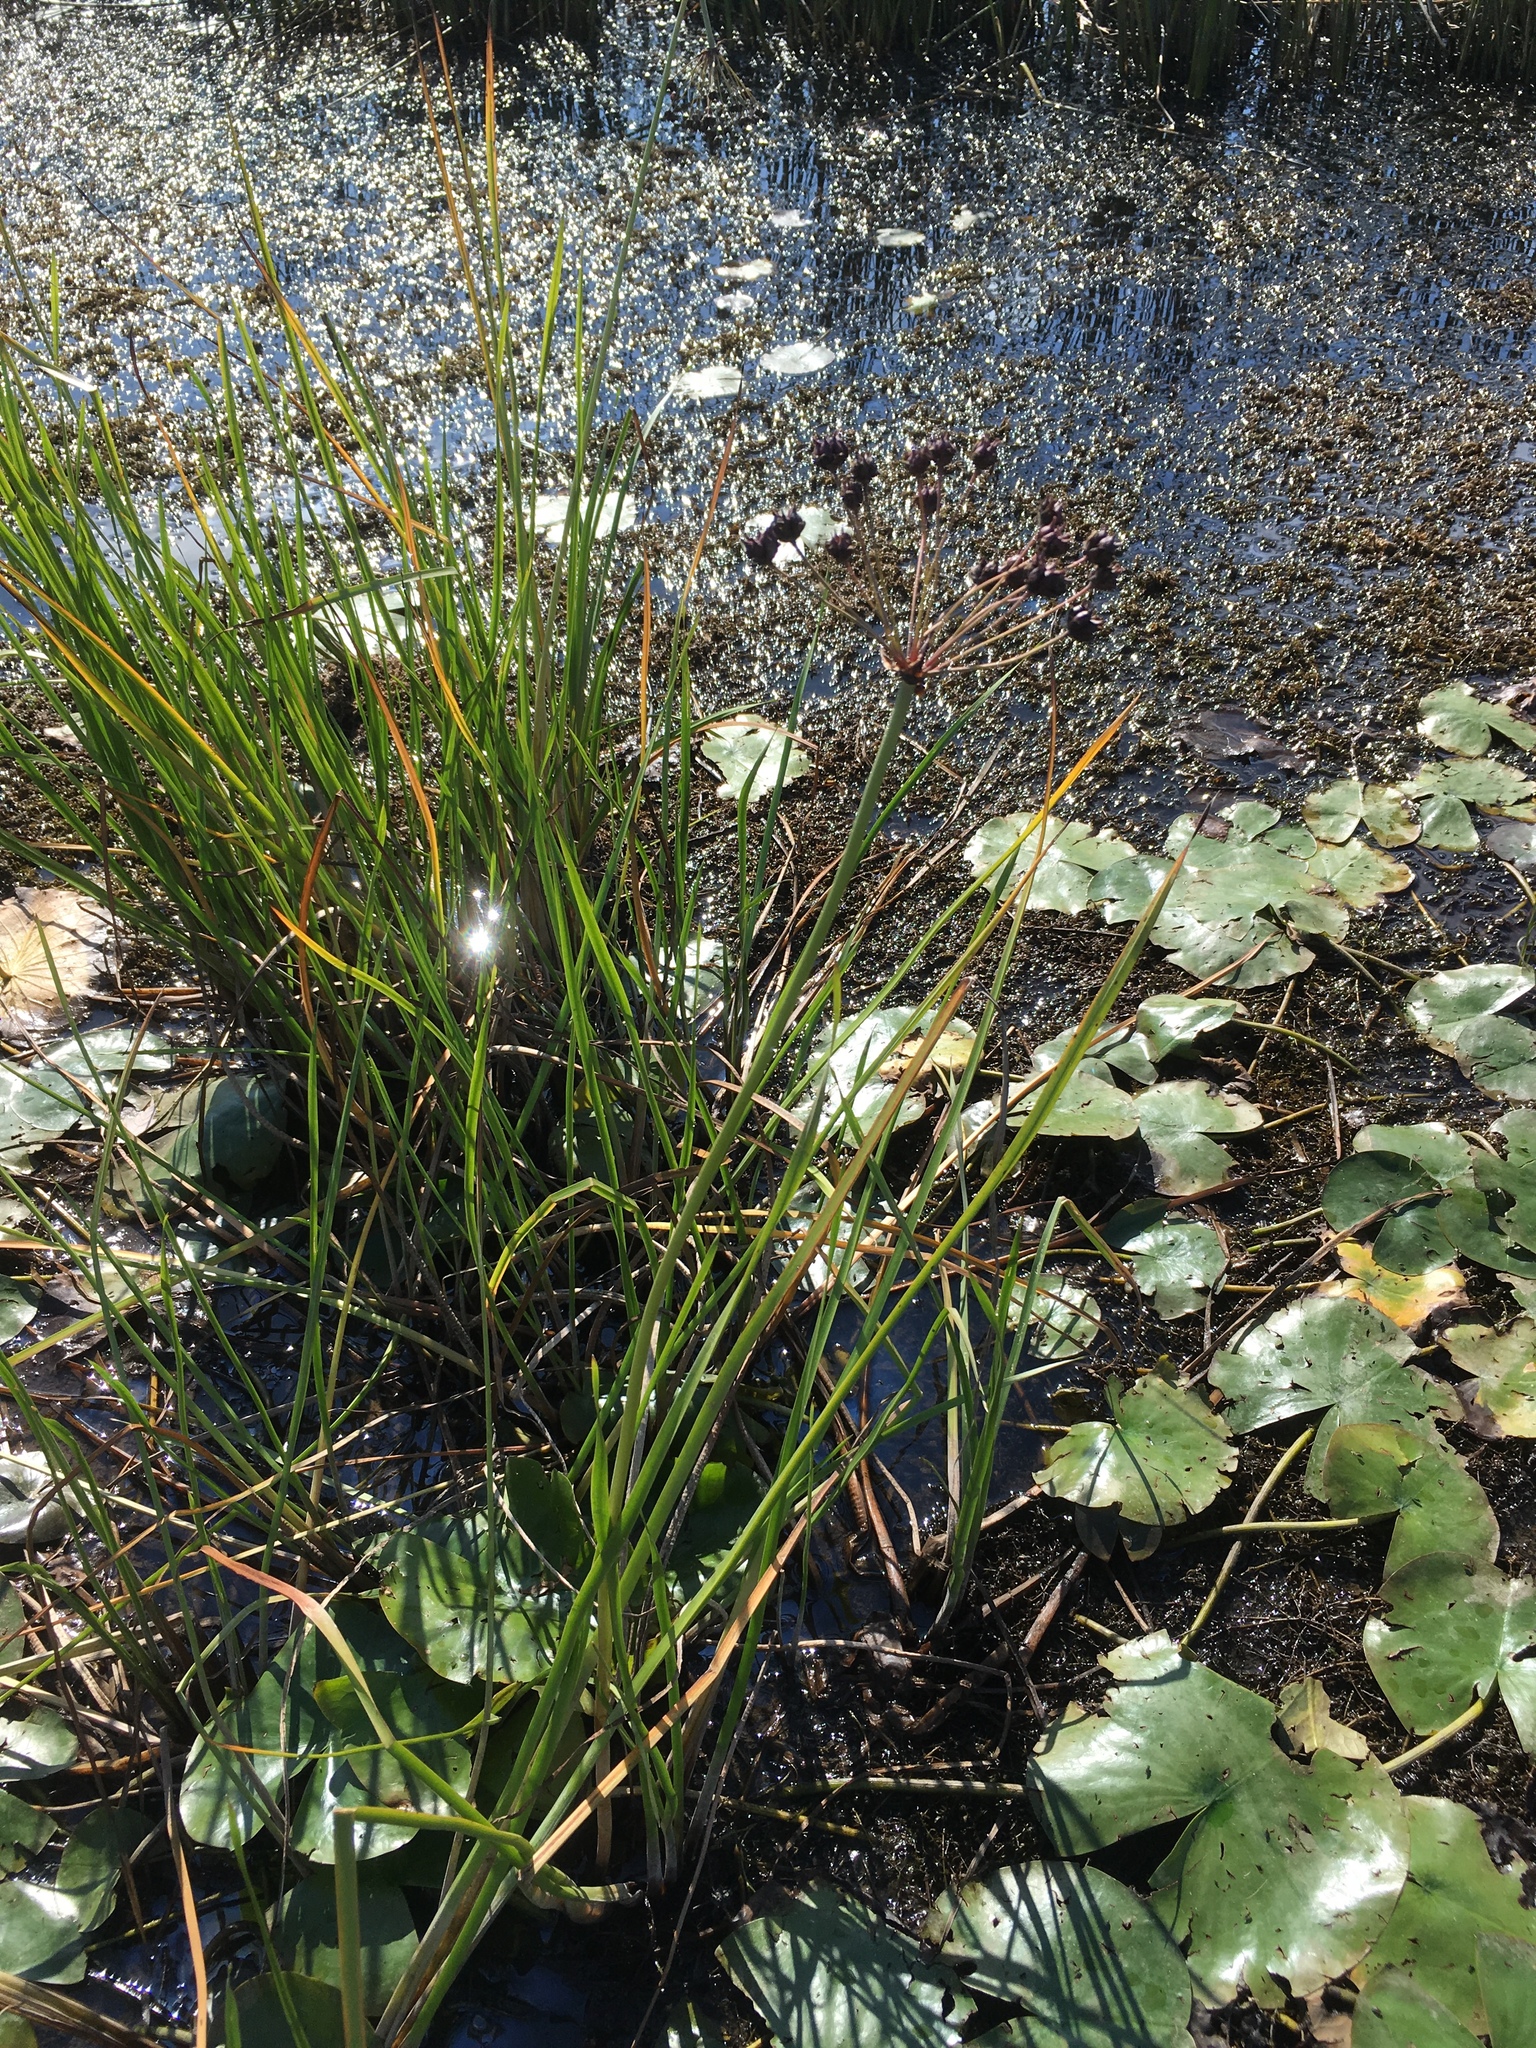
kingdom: Plantae
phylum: Tracheophyta
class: Liliopsida
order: Alismatales
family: Butomaceae
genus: Butomus
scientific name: Butomus umbellatus
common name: Flowering-rush
